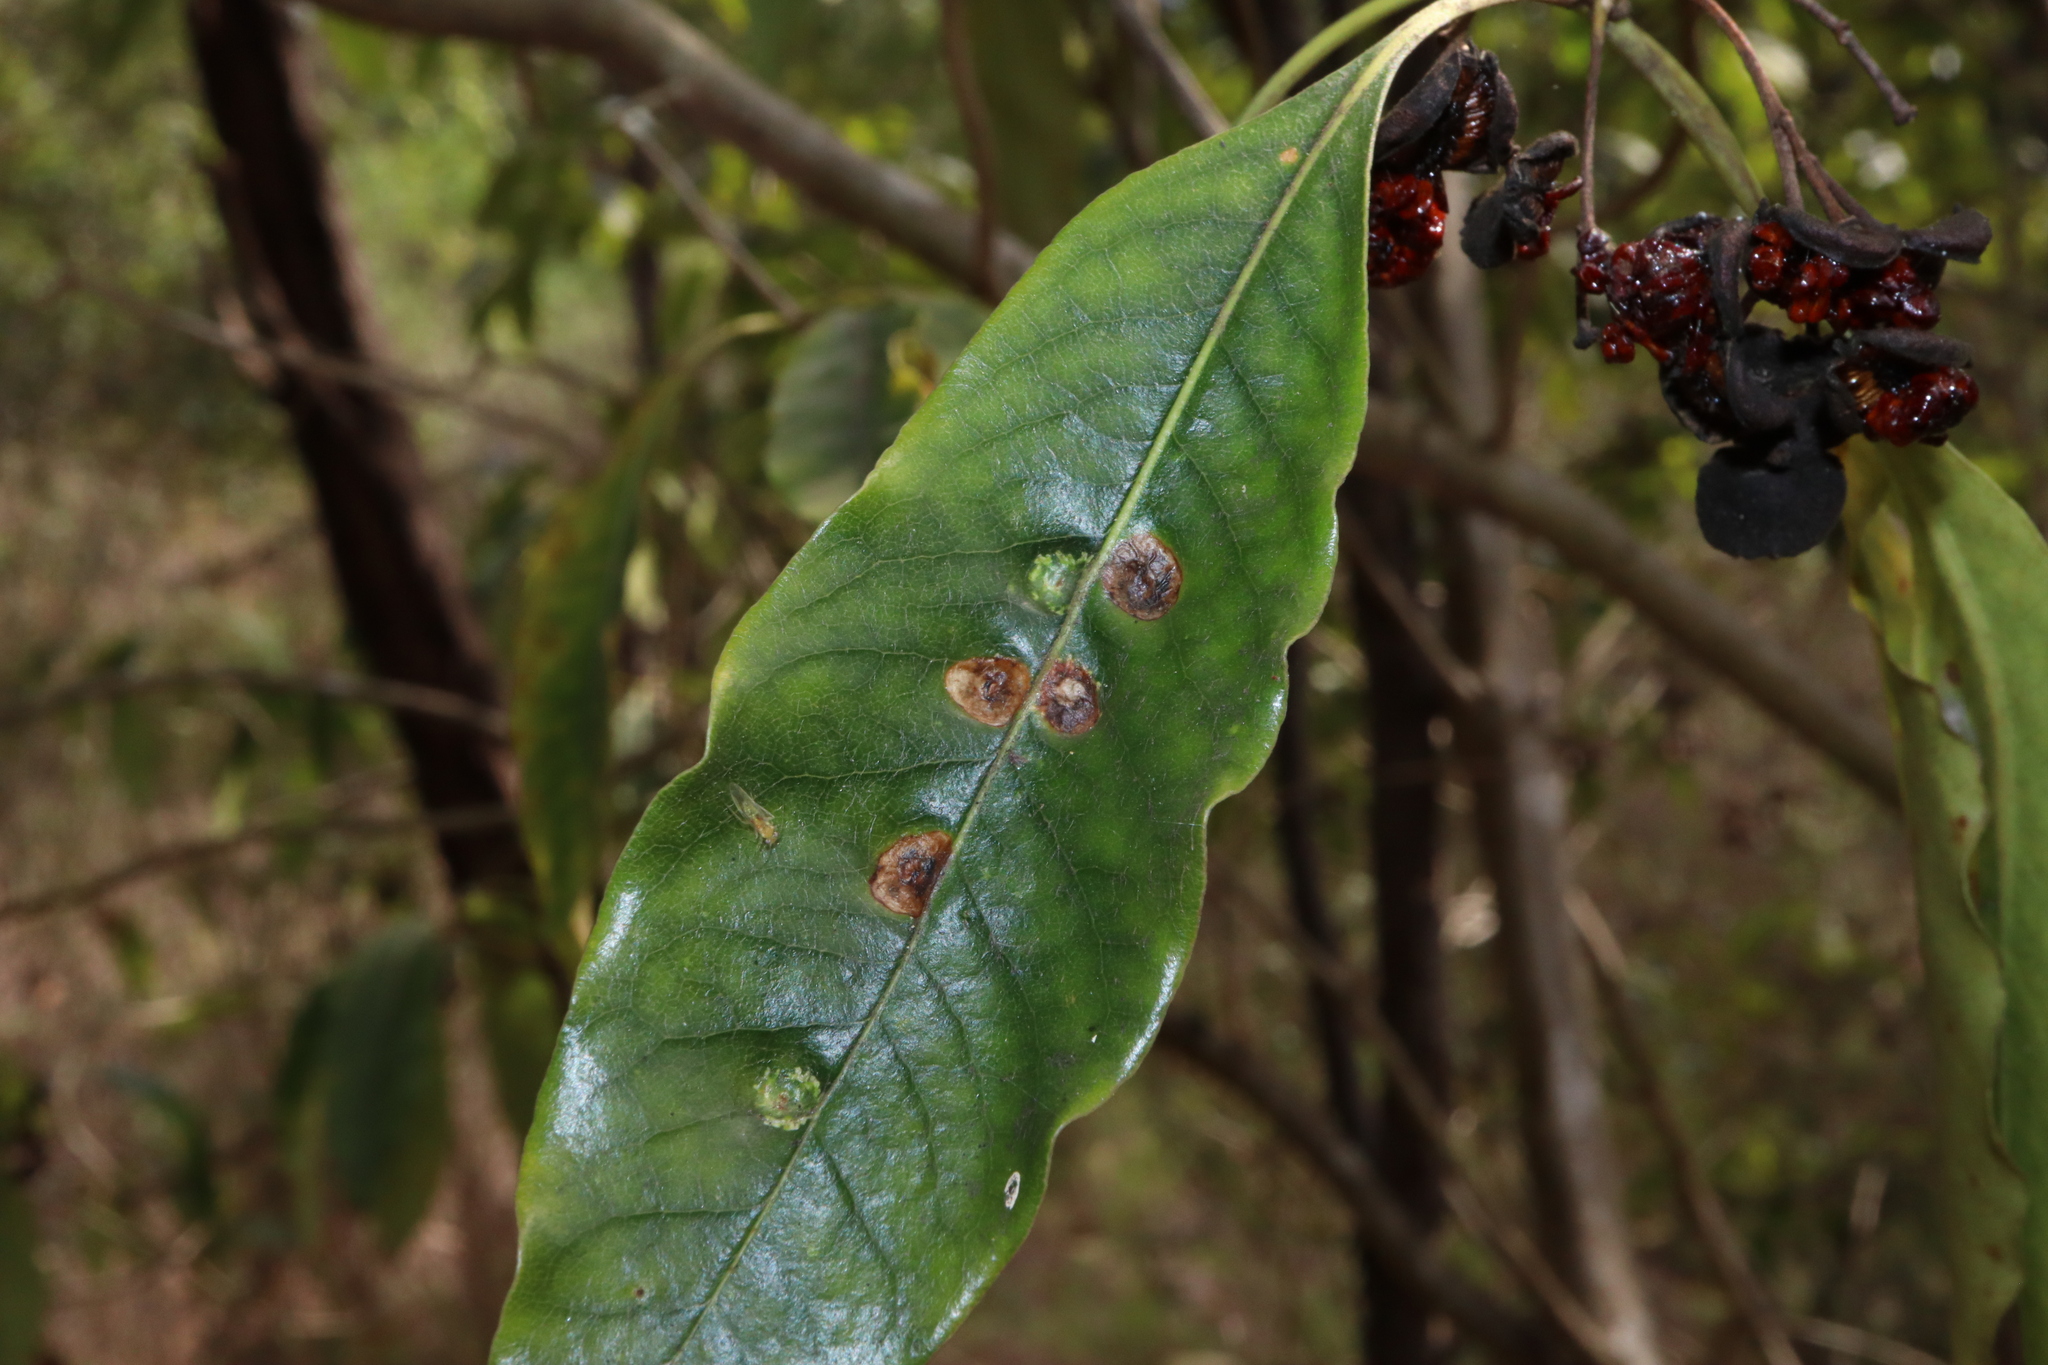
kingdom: Animalia
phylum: Arthropoda
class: Insecta
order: Diptera
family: Agromyzidae
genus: Phytoliriomyza
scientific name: Phytoliriomyza pittosporophylli
